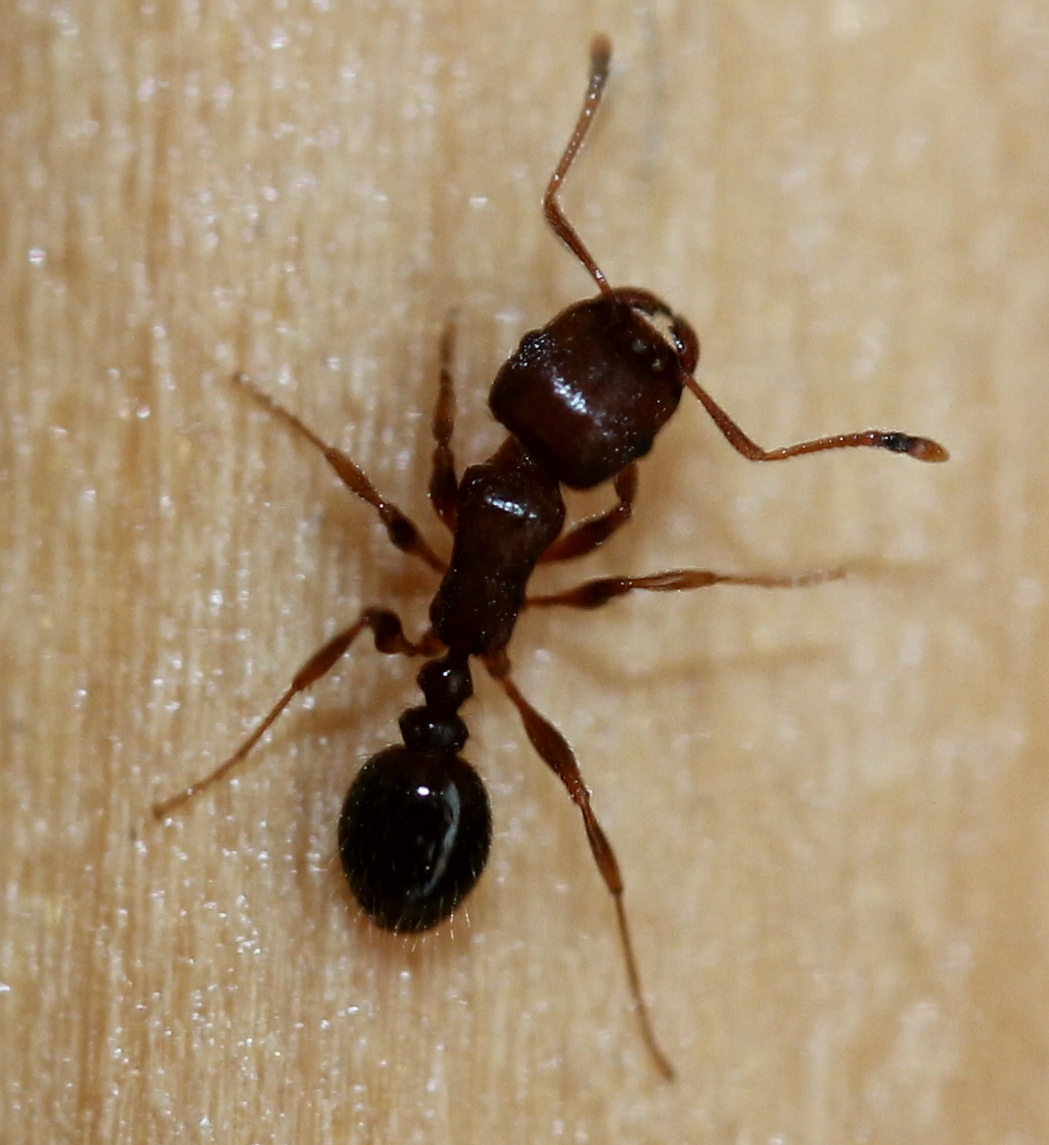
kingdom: Animalia
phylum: Arthropoda
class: Insecta
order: Hymenoptera
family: Formicidae
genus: Tetramorium
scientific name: Tetramorium immigrans
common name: Pavement ant
